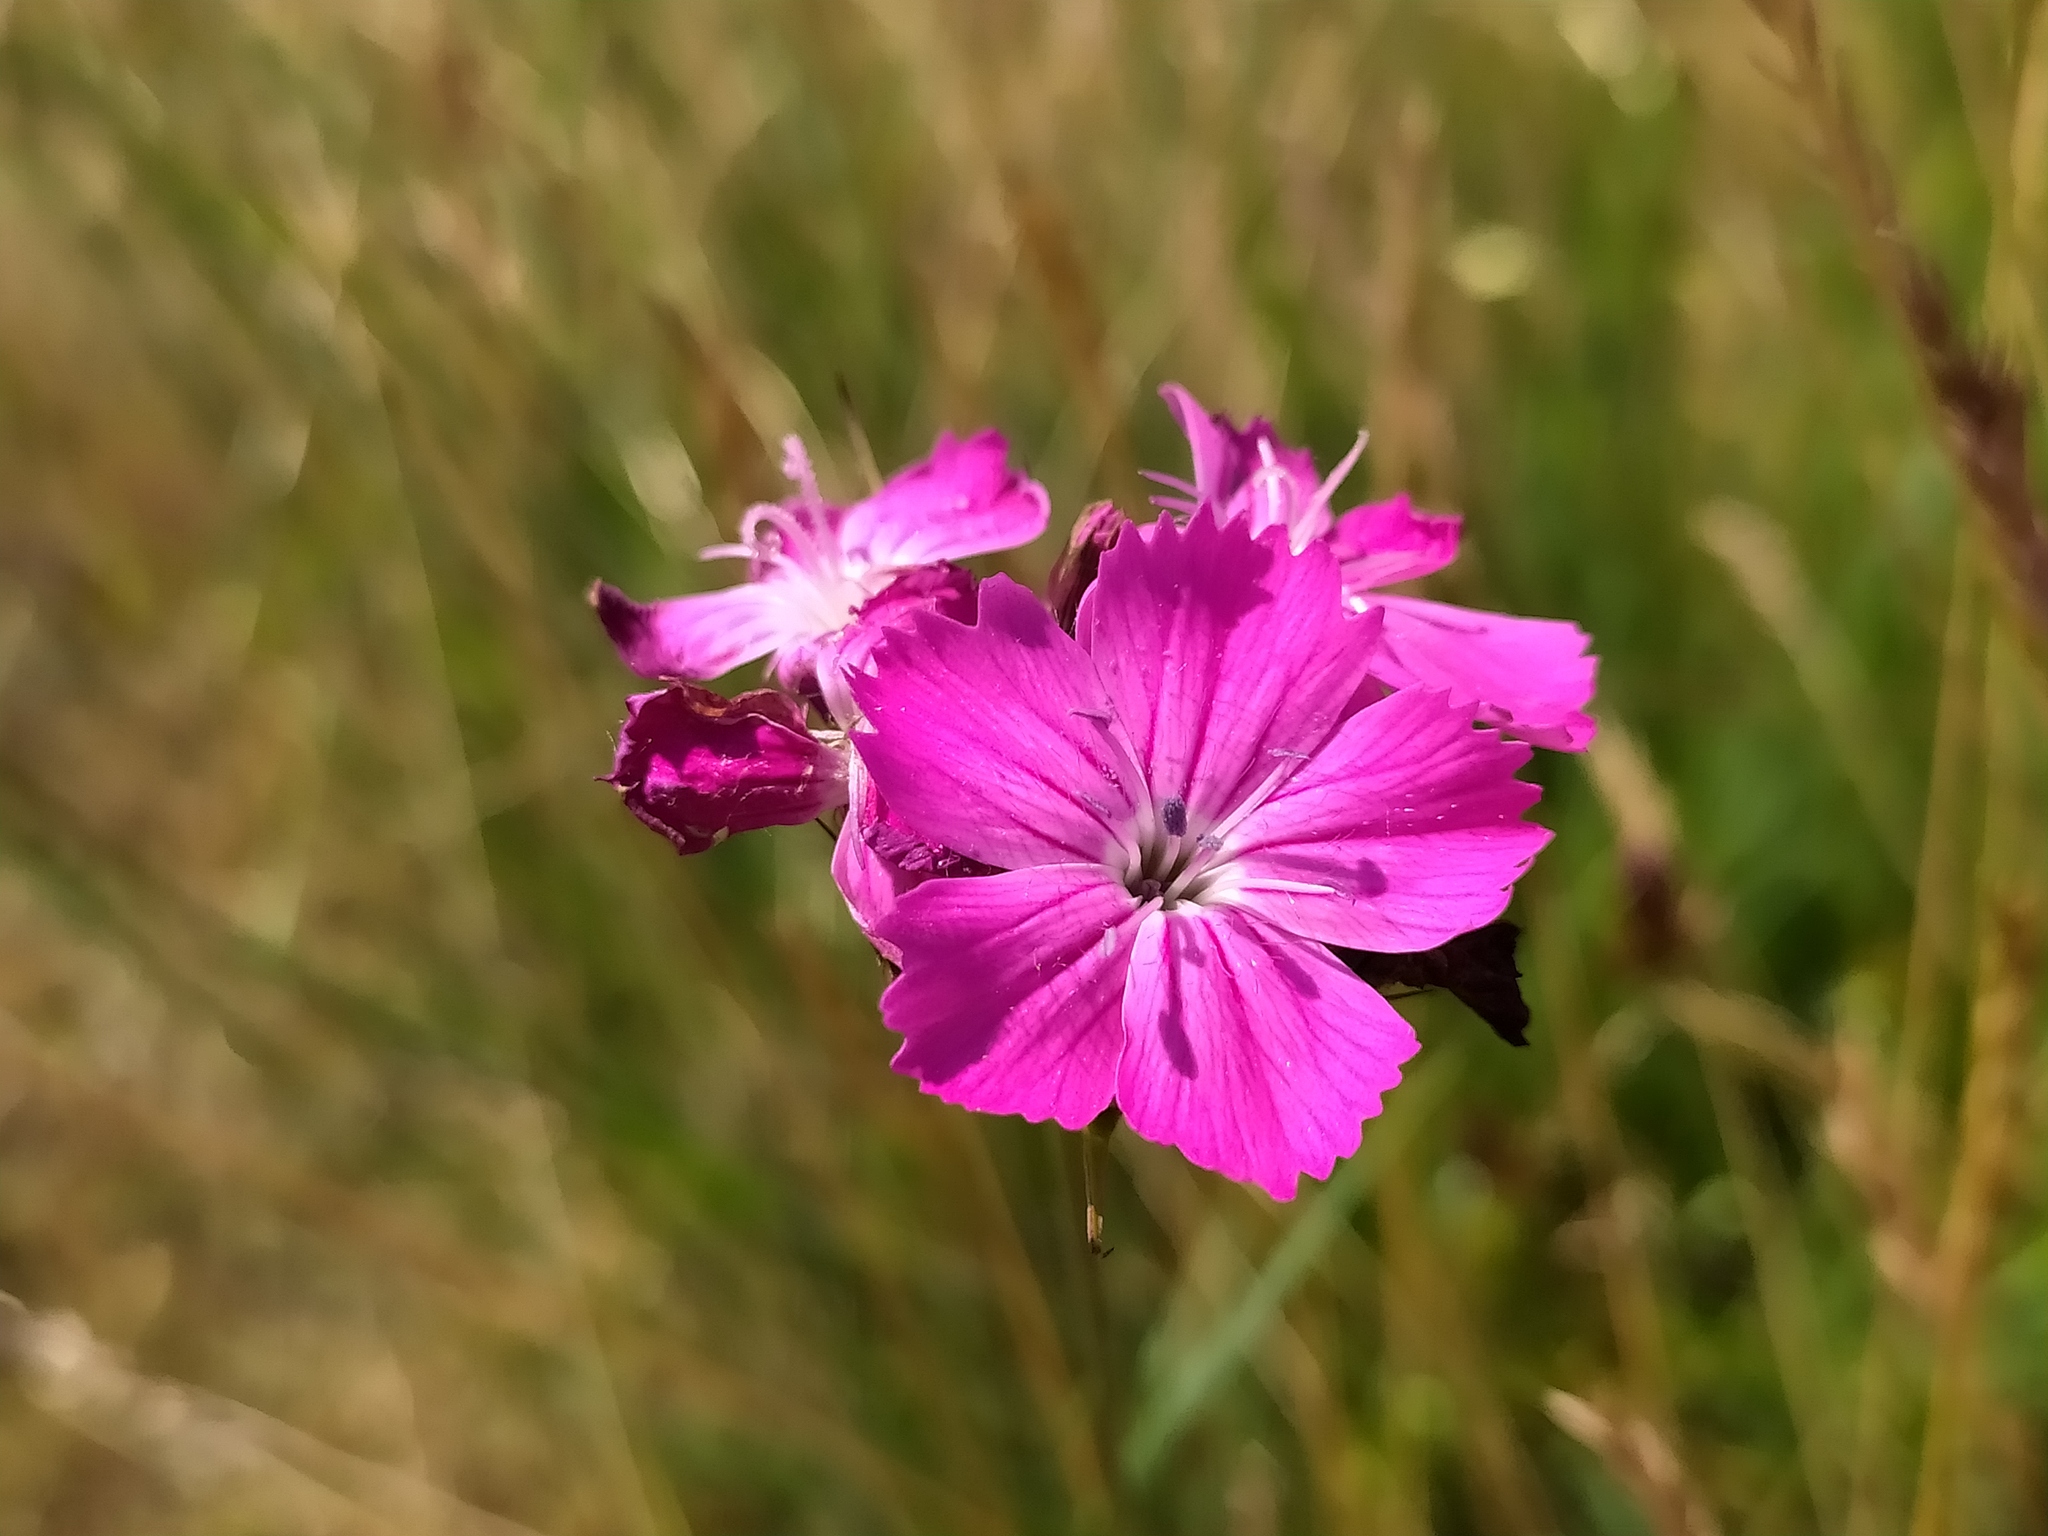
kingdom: Plantae
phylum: Tracheophyta
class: Magnoliopsida
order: Caryophyllales
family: Caryophyllaceae
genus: Dianthus
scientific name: Dianthus carthusianorum
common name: Carthusian pink
